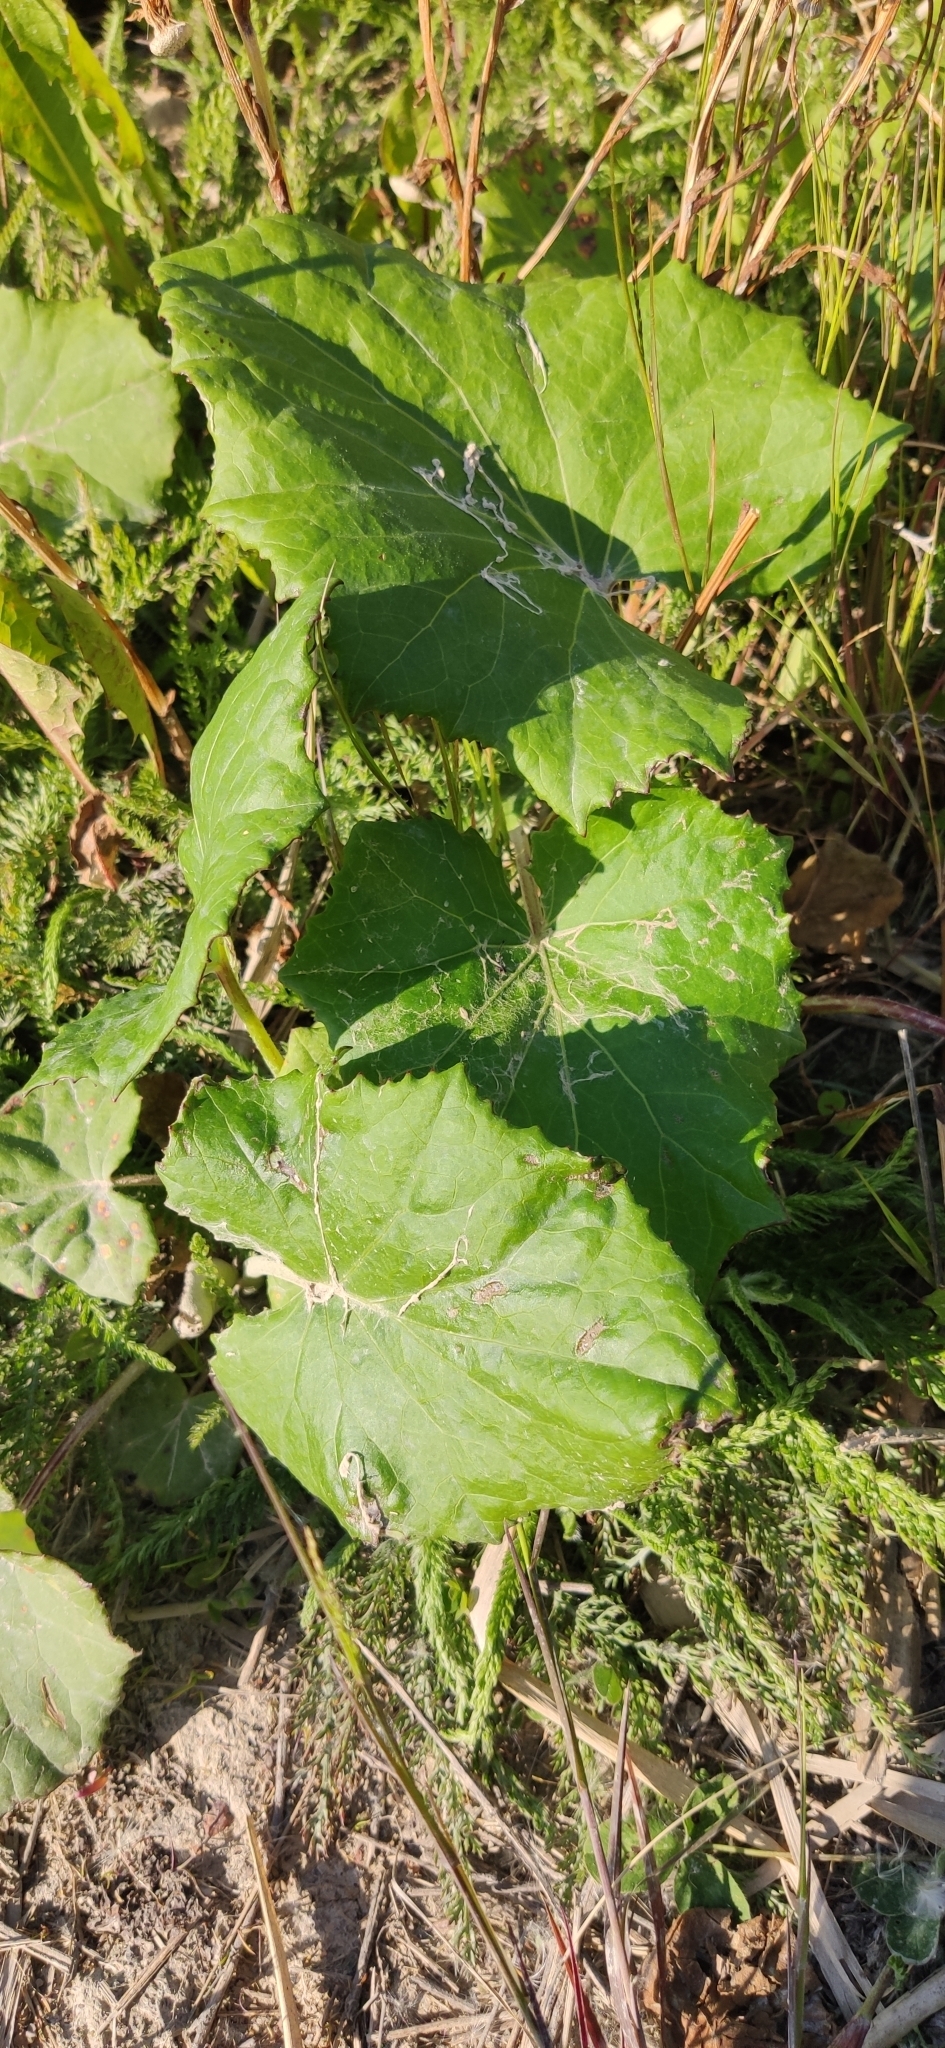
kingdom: Plantae
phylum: Tracheophyta
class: Magnoliopsida
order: Asterales
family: Asteraceae
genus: Tussilago
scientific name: Tussilago farfara
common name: Coltsfoot
